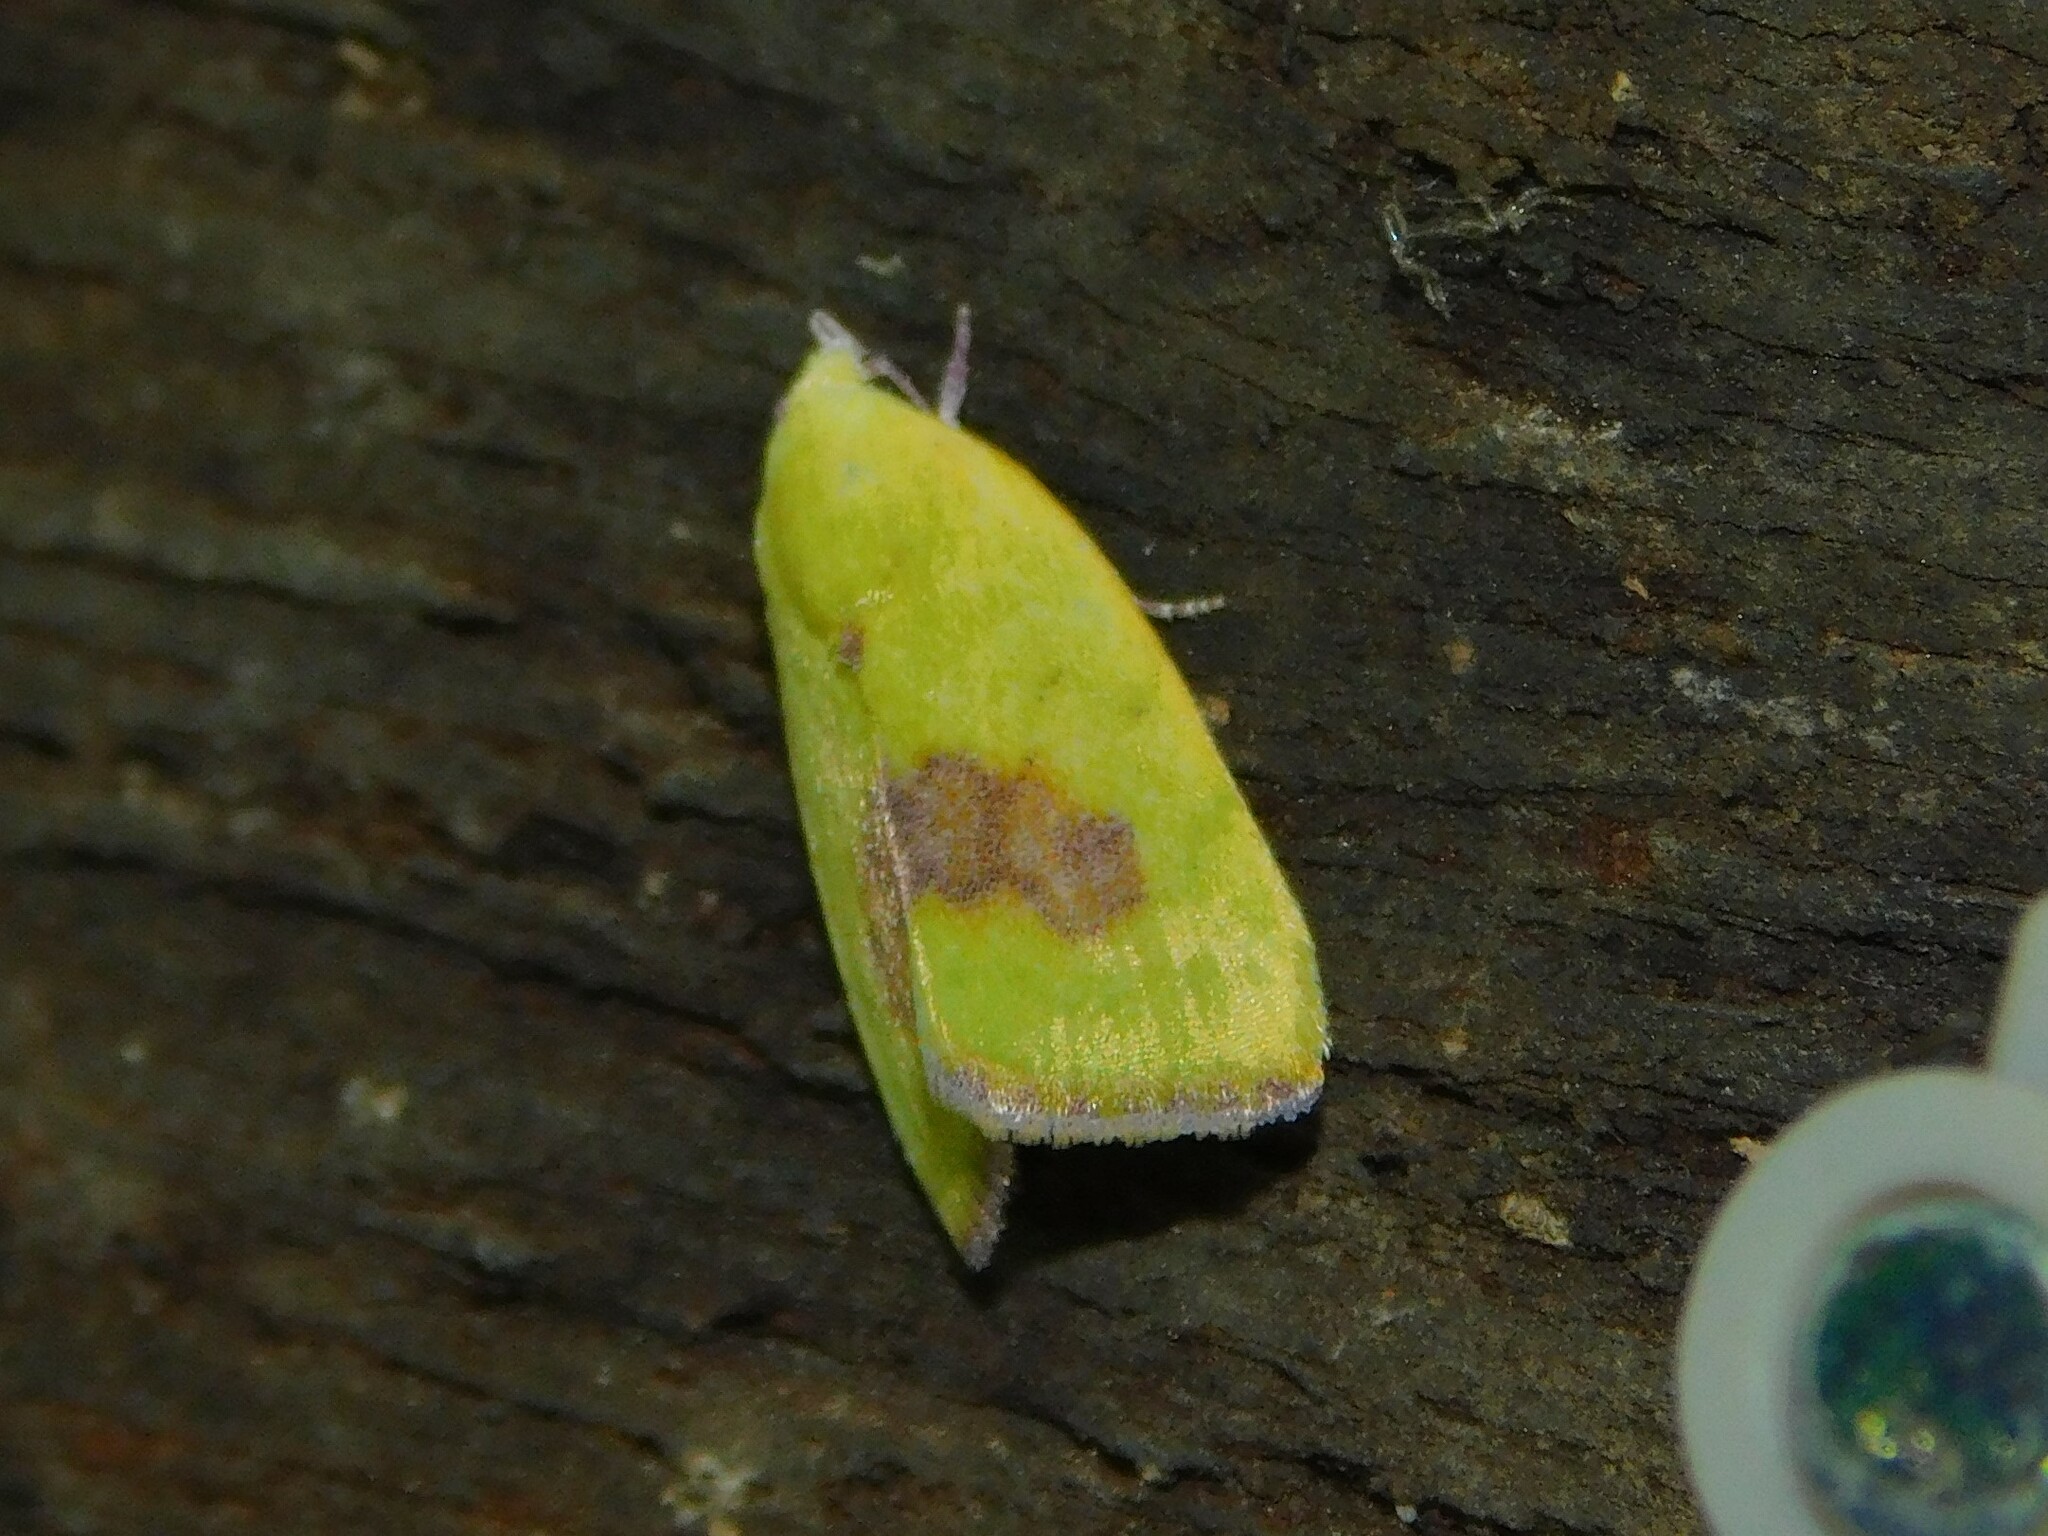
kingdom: Animalia
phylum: Arthropoda
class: Insecta
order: Lepidoptera
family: Nolidae
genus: Earias
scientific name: Earias biplaga
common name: Spiny bollworm
